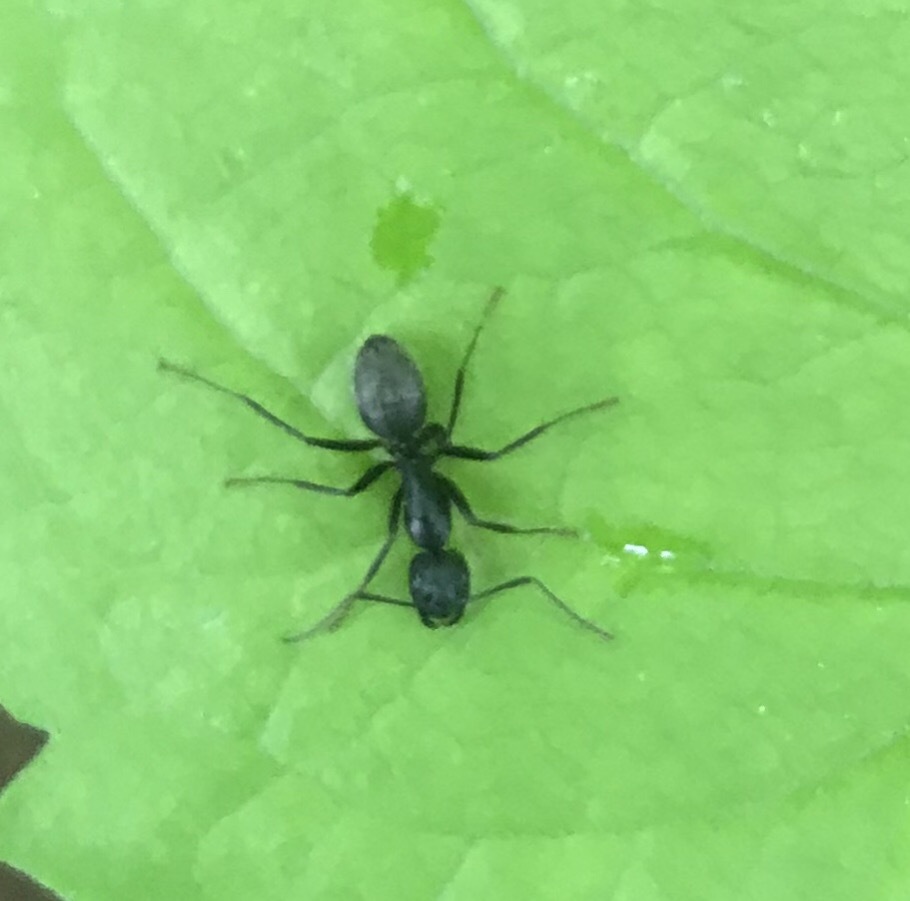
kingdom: Animalia
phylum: Arthropoda
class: Insecta
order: Hymenoptera
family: Formicidae
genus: Camponotus
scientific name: Camponotus pennsylvanicus
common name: Black carpenter ant
